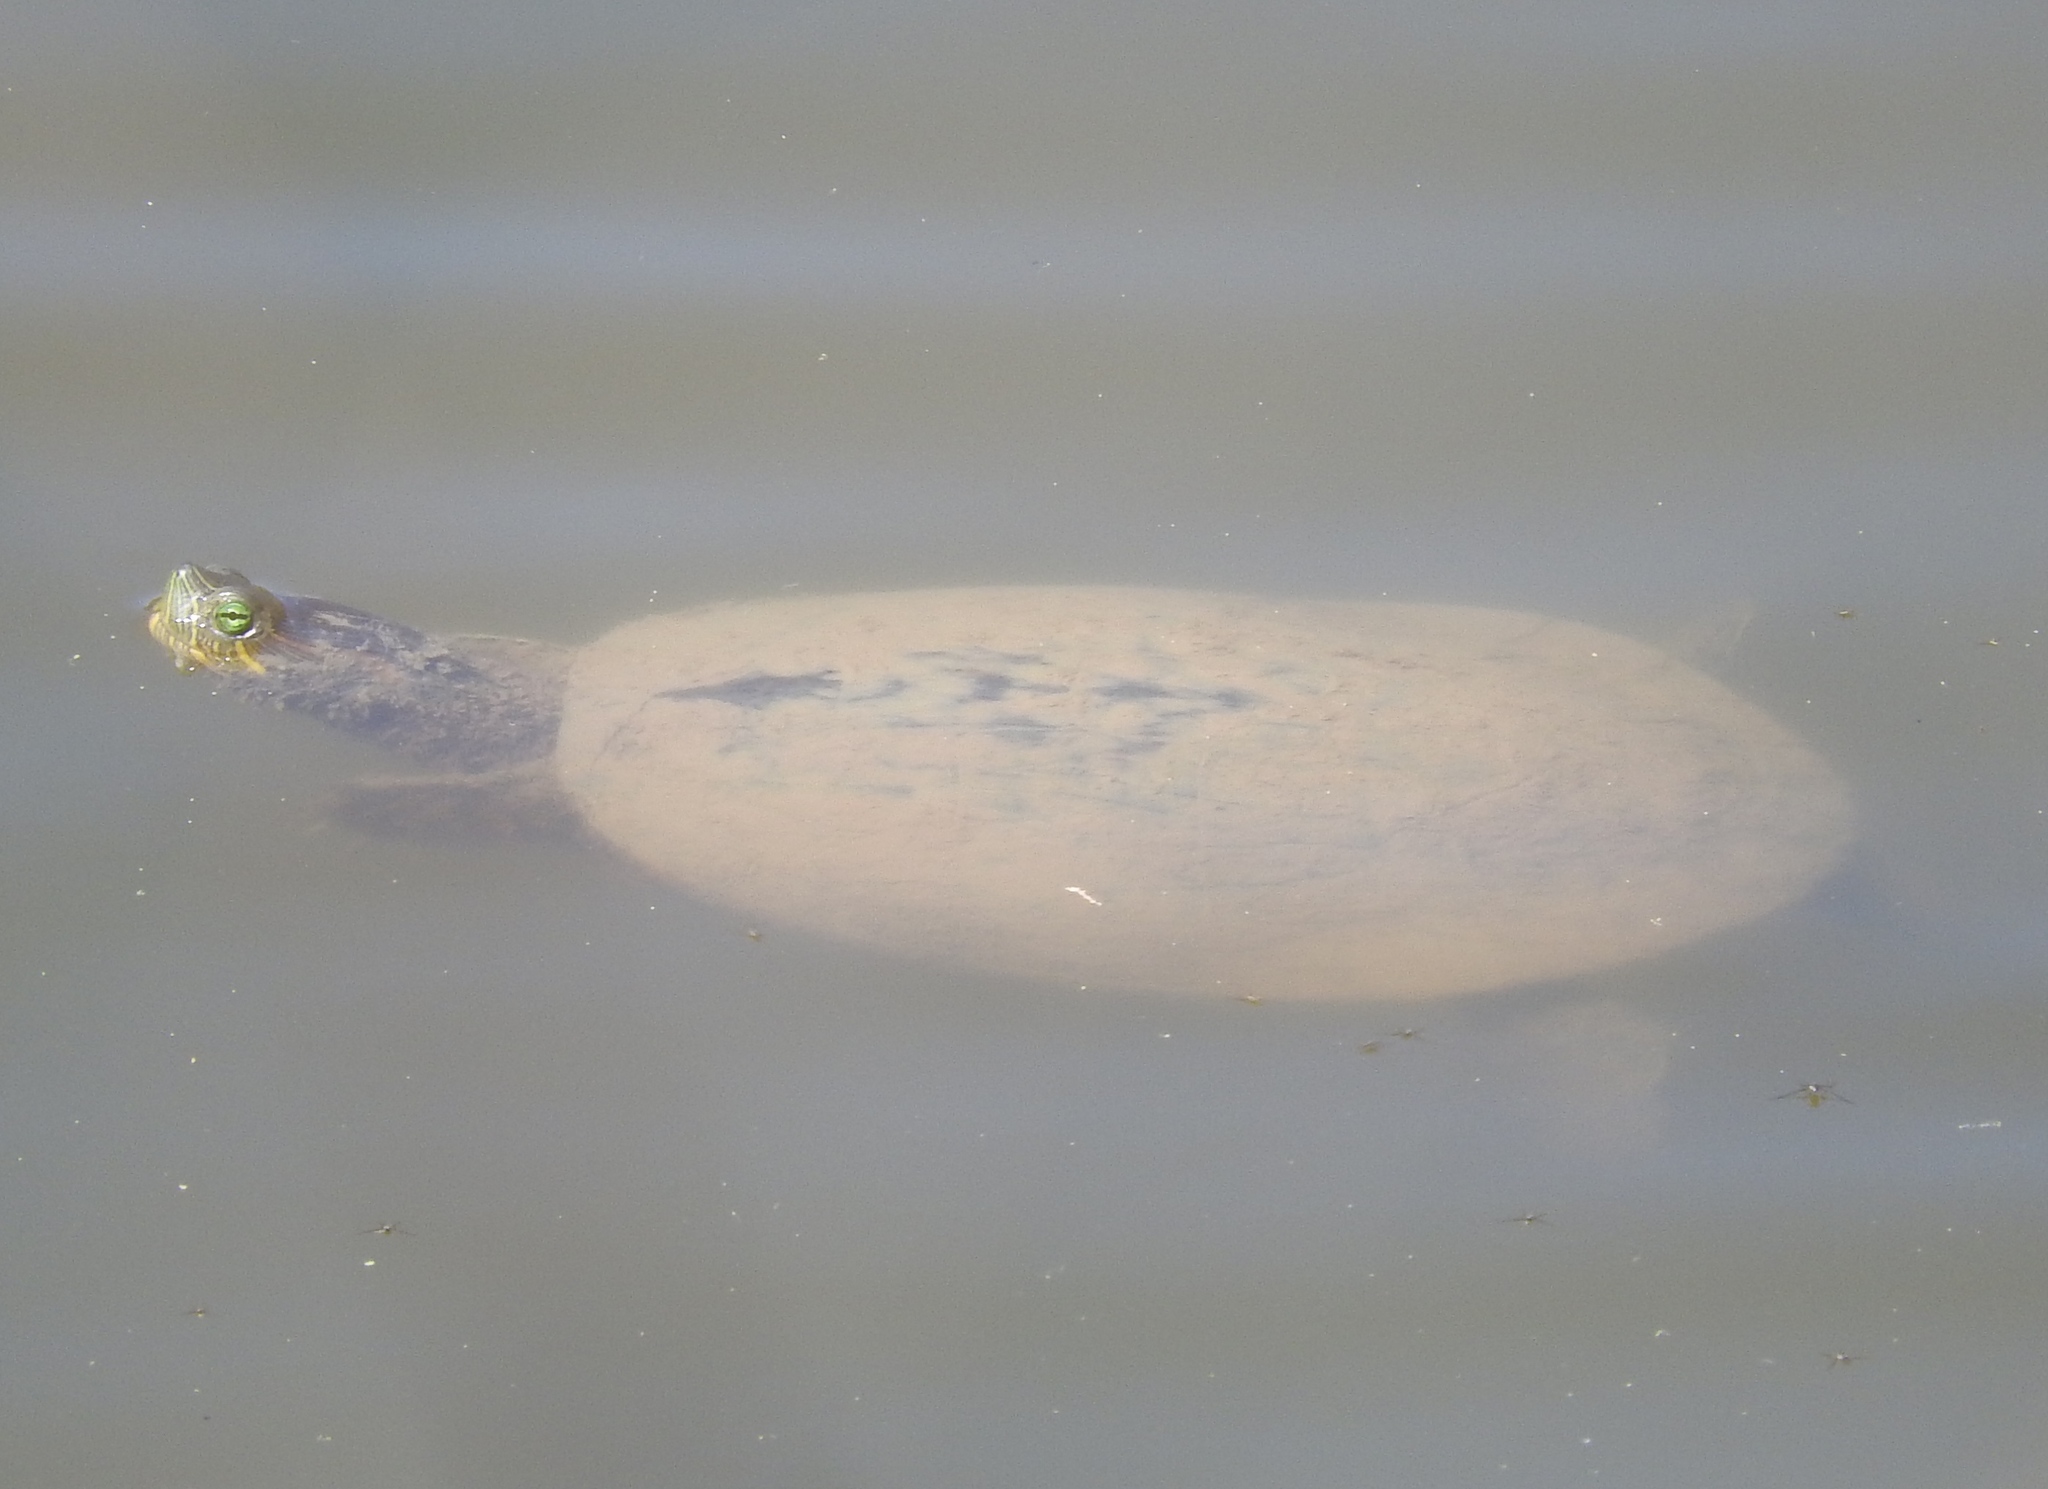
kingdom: Animalia
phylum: Chordata
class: Testudines
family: Emydidae
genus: Trachemys
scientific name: Trachemys ornata
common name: Ornate slider
